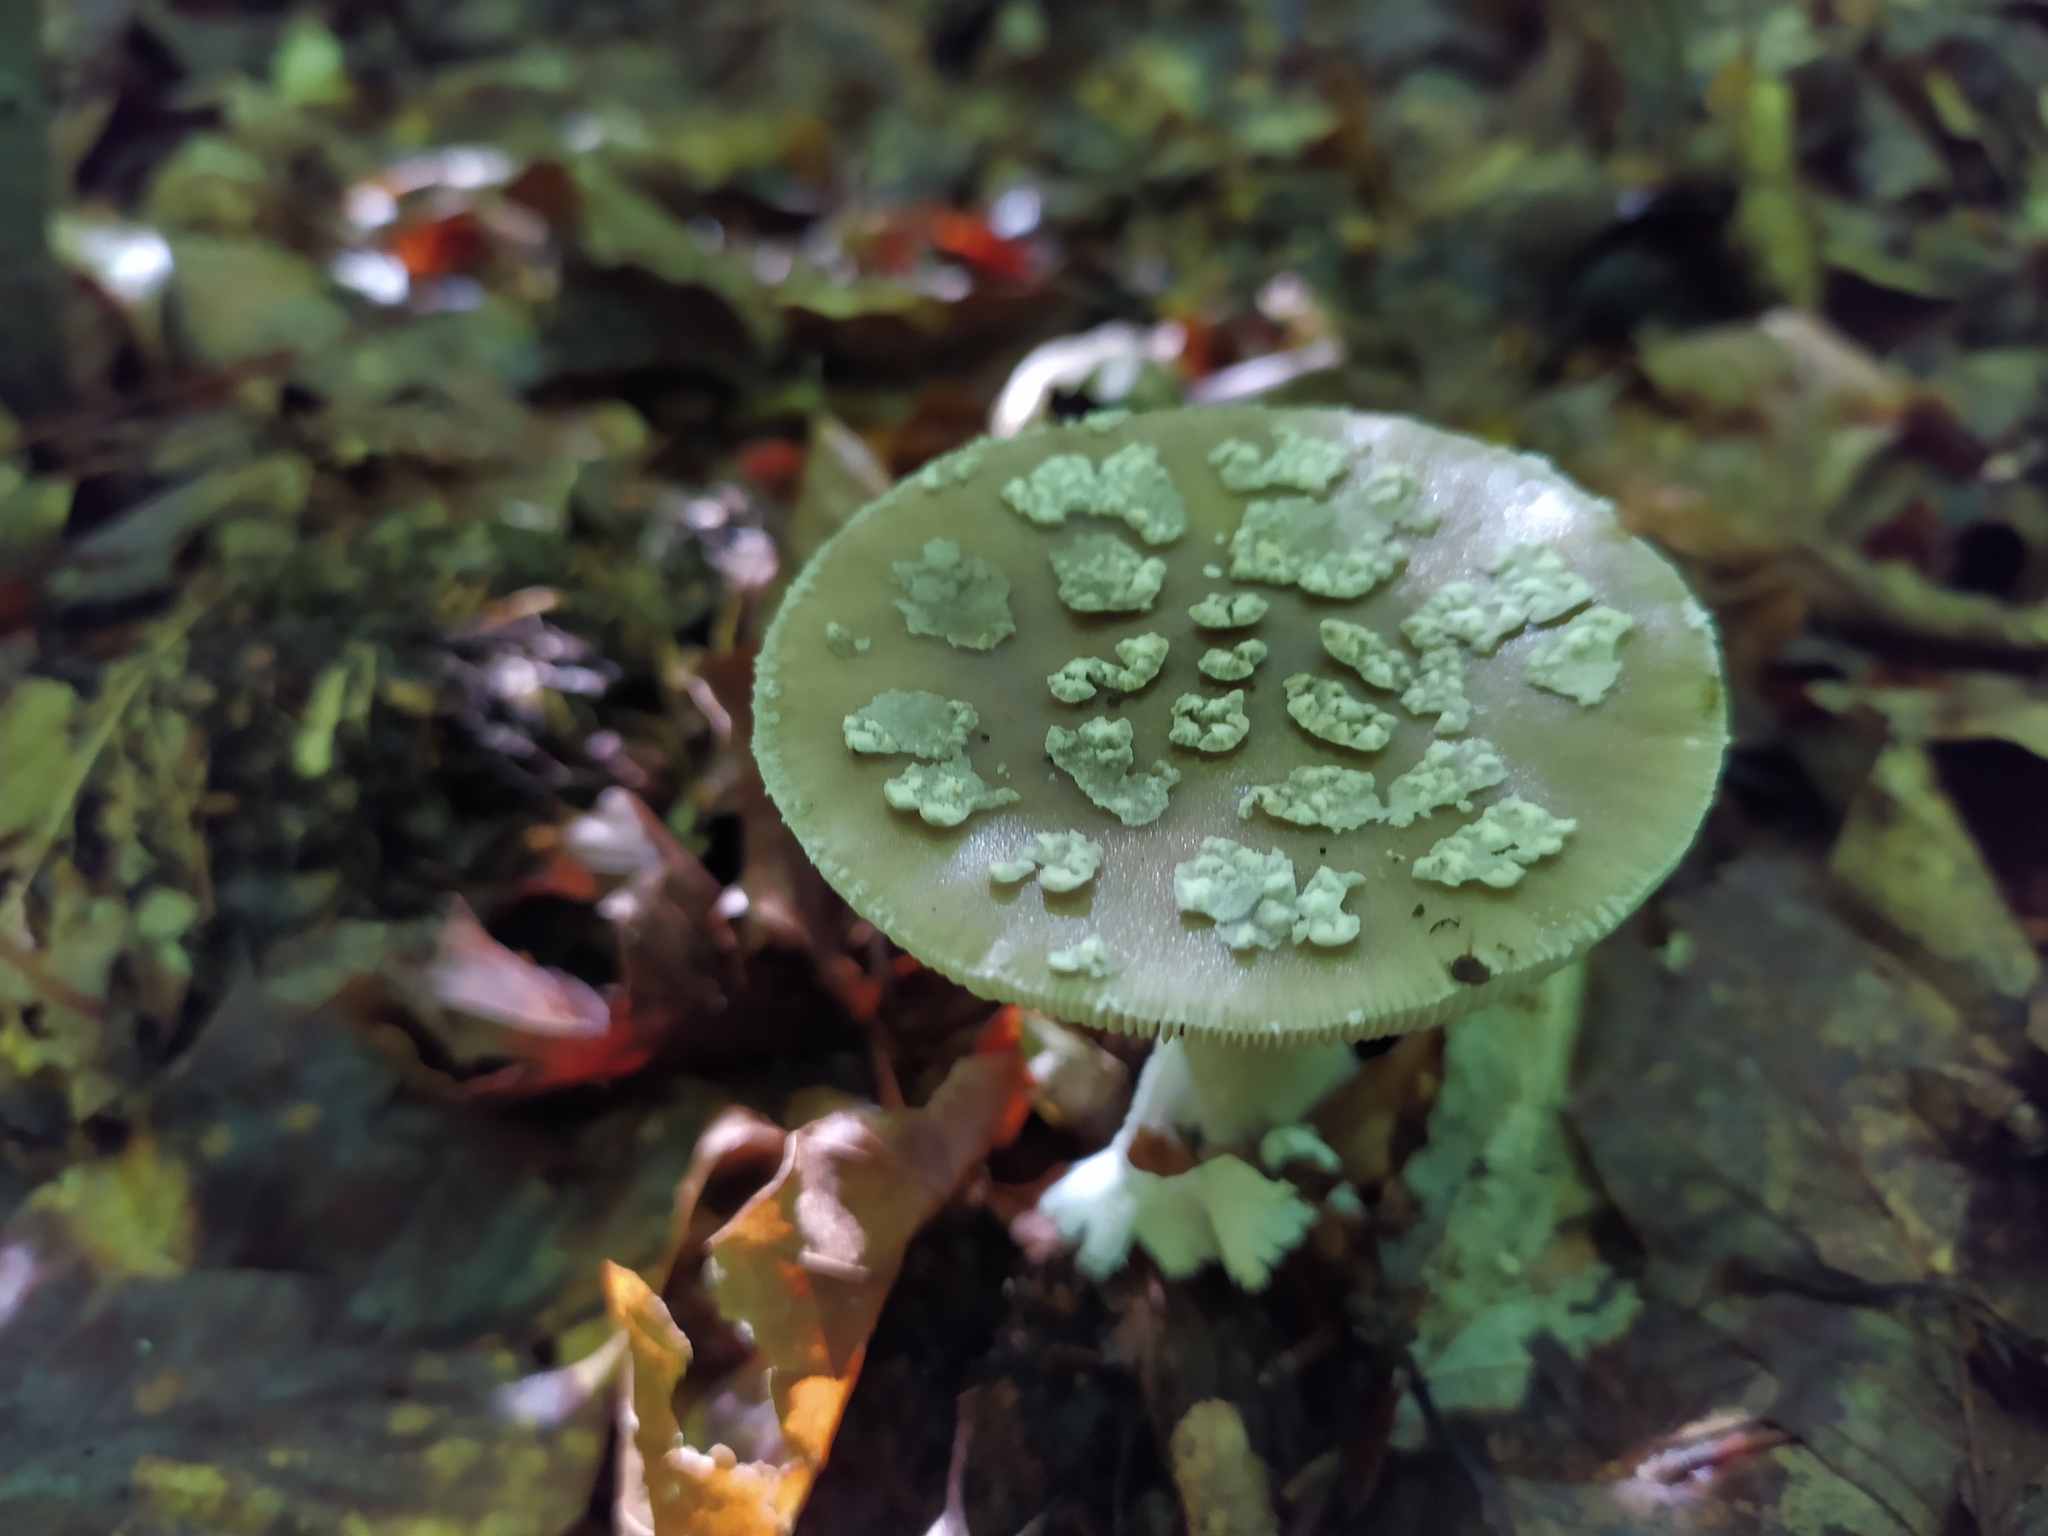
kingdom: Fungi
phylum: Basidiomycota
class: Agaricomycetes
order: Agaricales
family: Amanitaceae
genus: Amanita
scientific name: Amanita excelsa
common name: European false blusher
